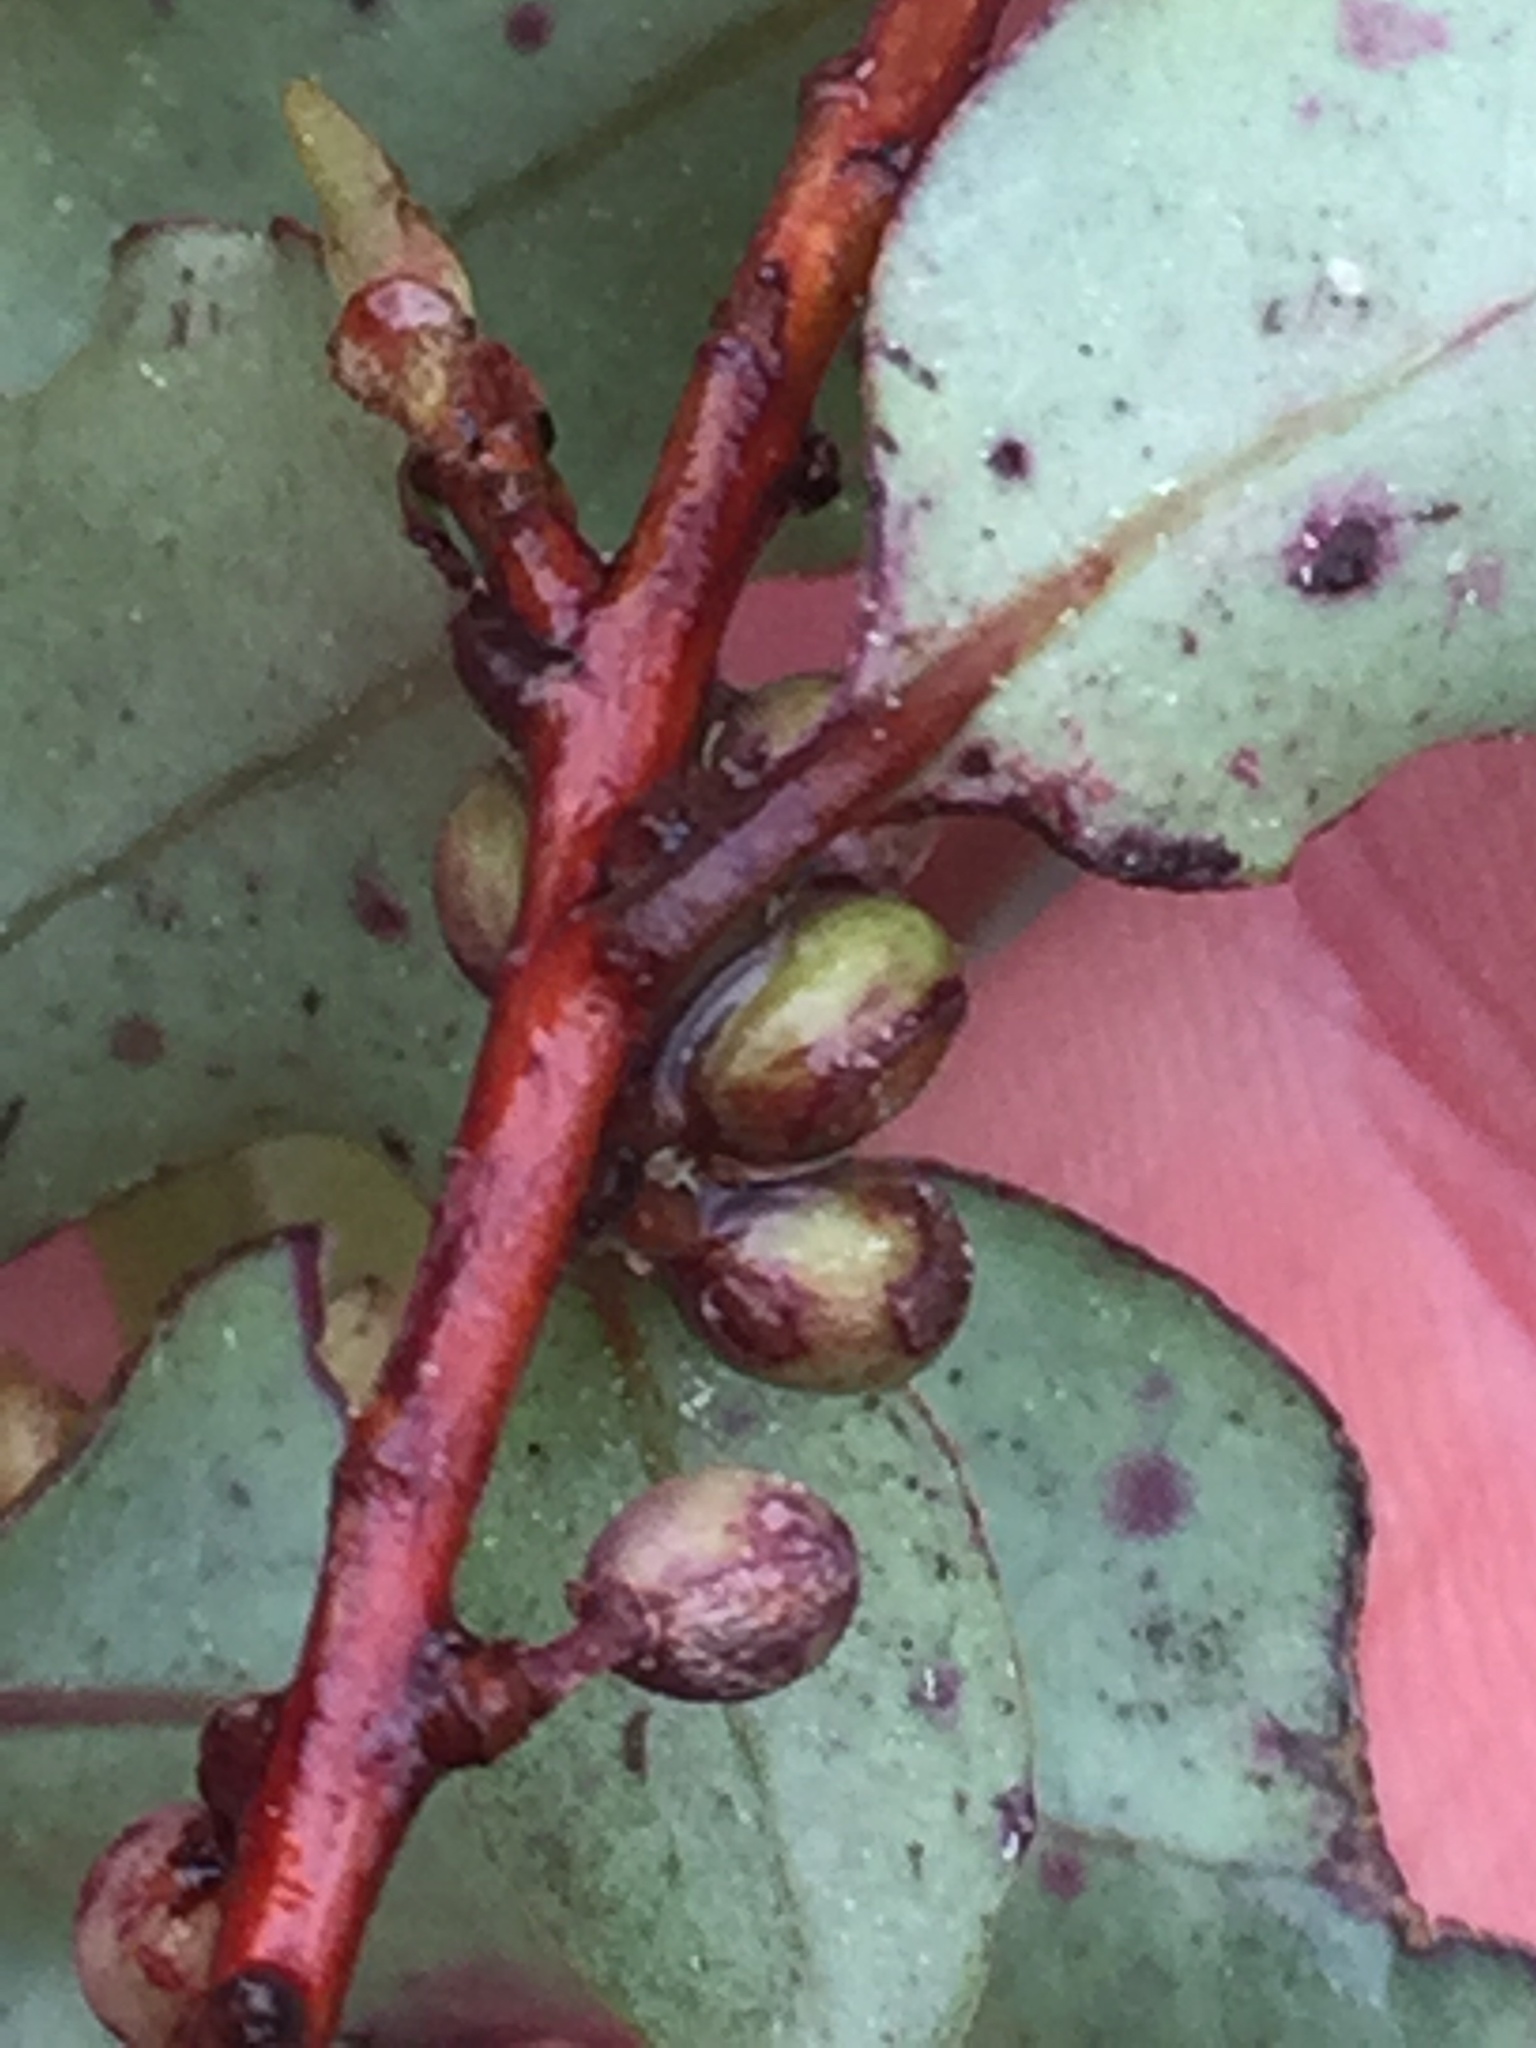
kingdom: Plantae
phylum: Tracheophyta
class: Magnoliopsida
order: Ericales
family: Primulaceae
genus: Myrsine
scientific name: Myrsine australis
